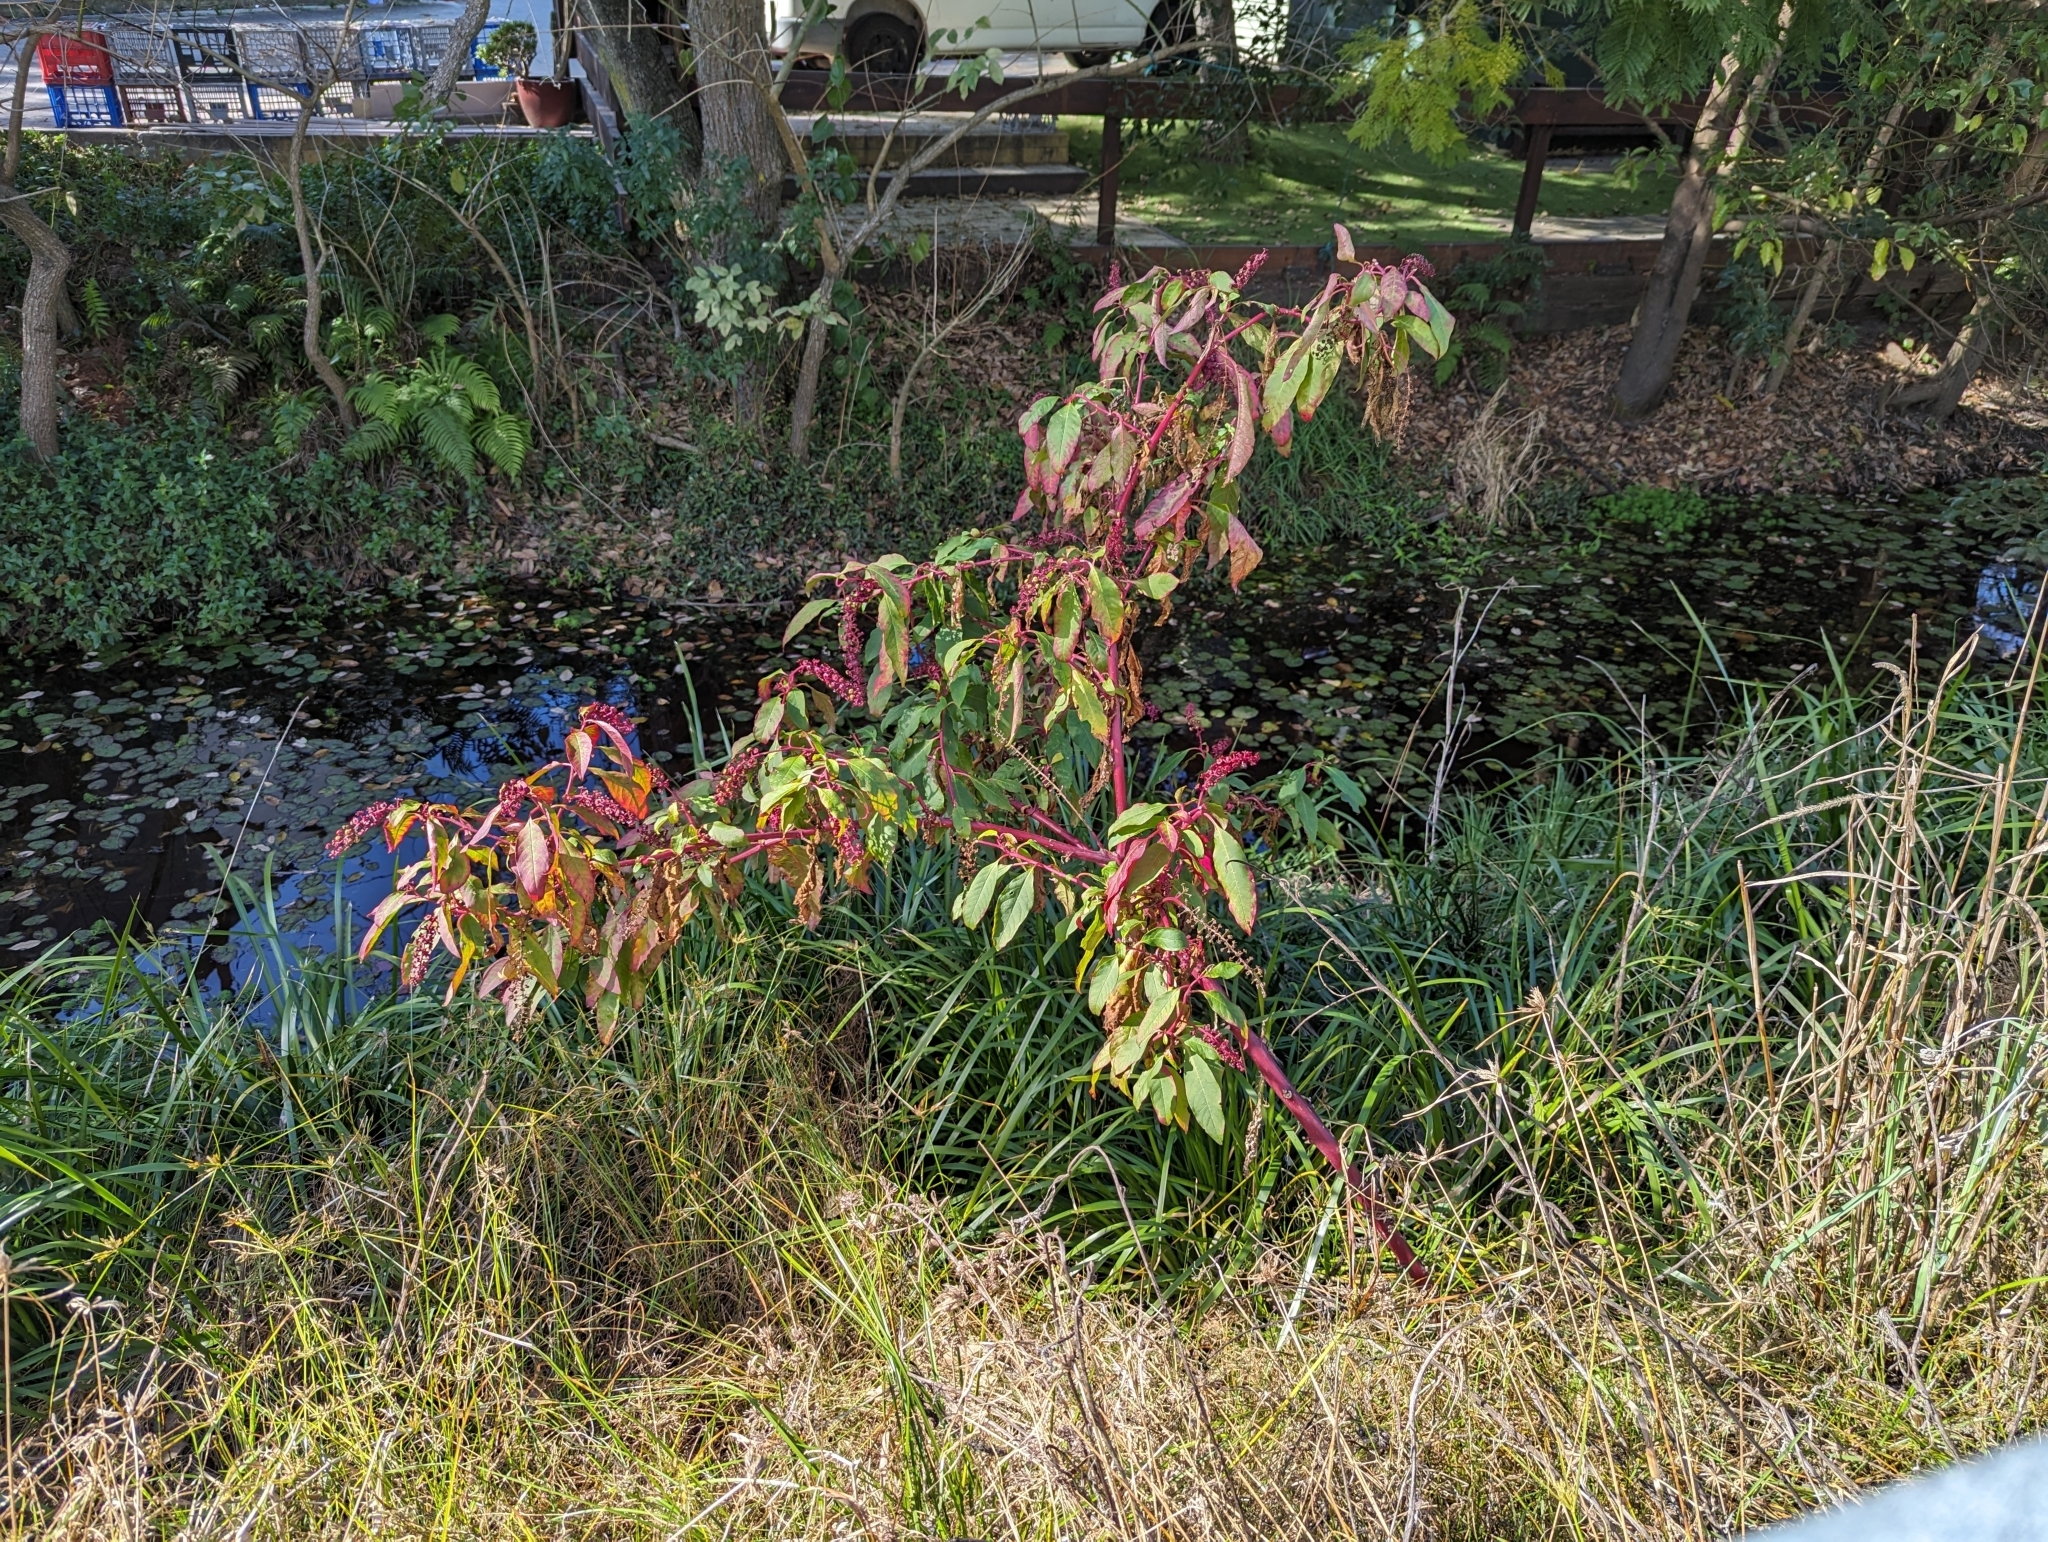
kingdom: Plantae
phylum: Tracheophyta
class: Magnoliopsida
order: Caryophyllales
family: Phytolaccaceae
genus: Phytolacca
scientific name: Phytolacca americana
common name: American pokeweed
